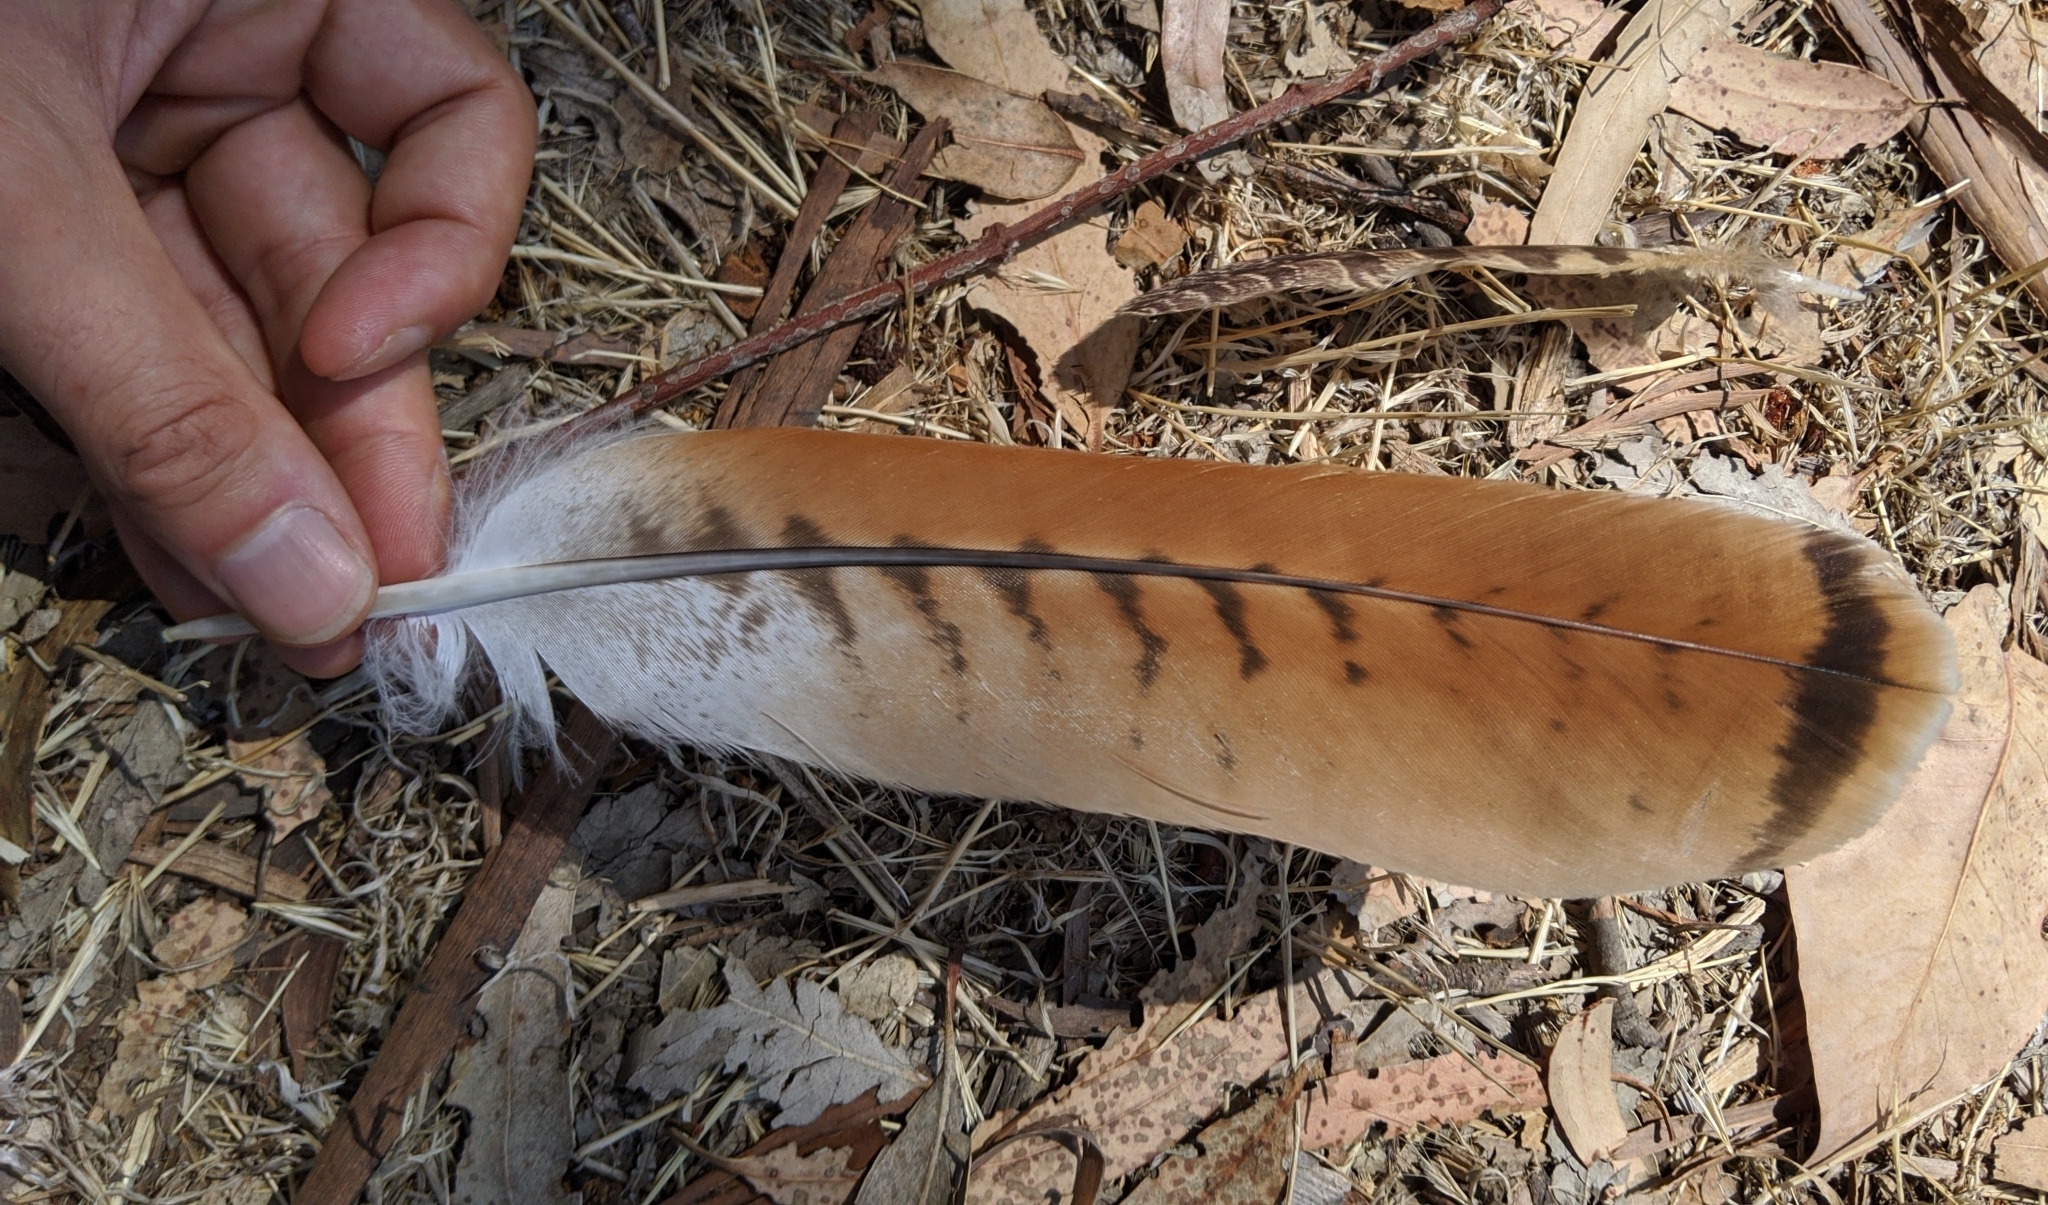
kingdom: Animalia
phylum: Chordata
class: Aves
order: Accipitriformes
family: Accipitridae
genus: Buteo
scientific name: Buteo jamaicensis
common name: Red-tailed hawk
